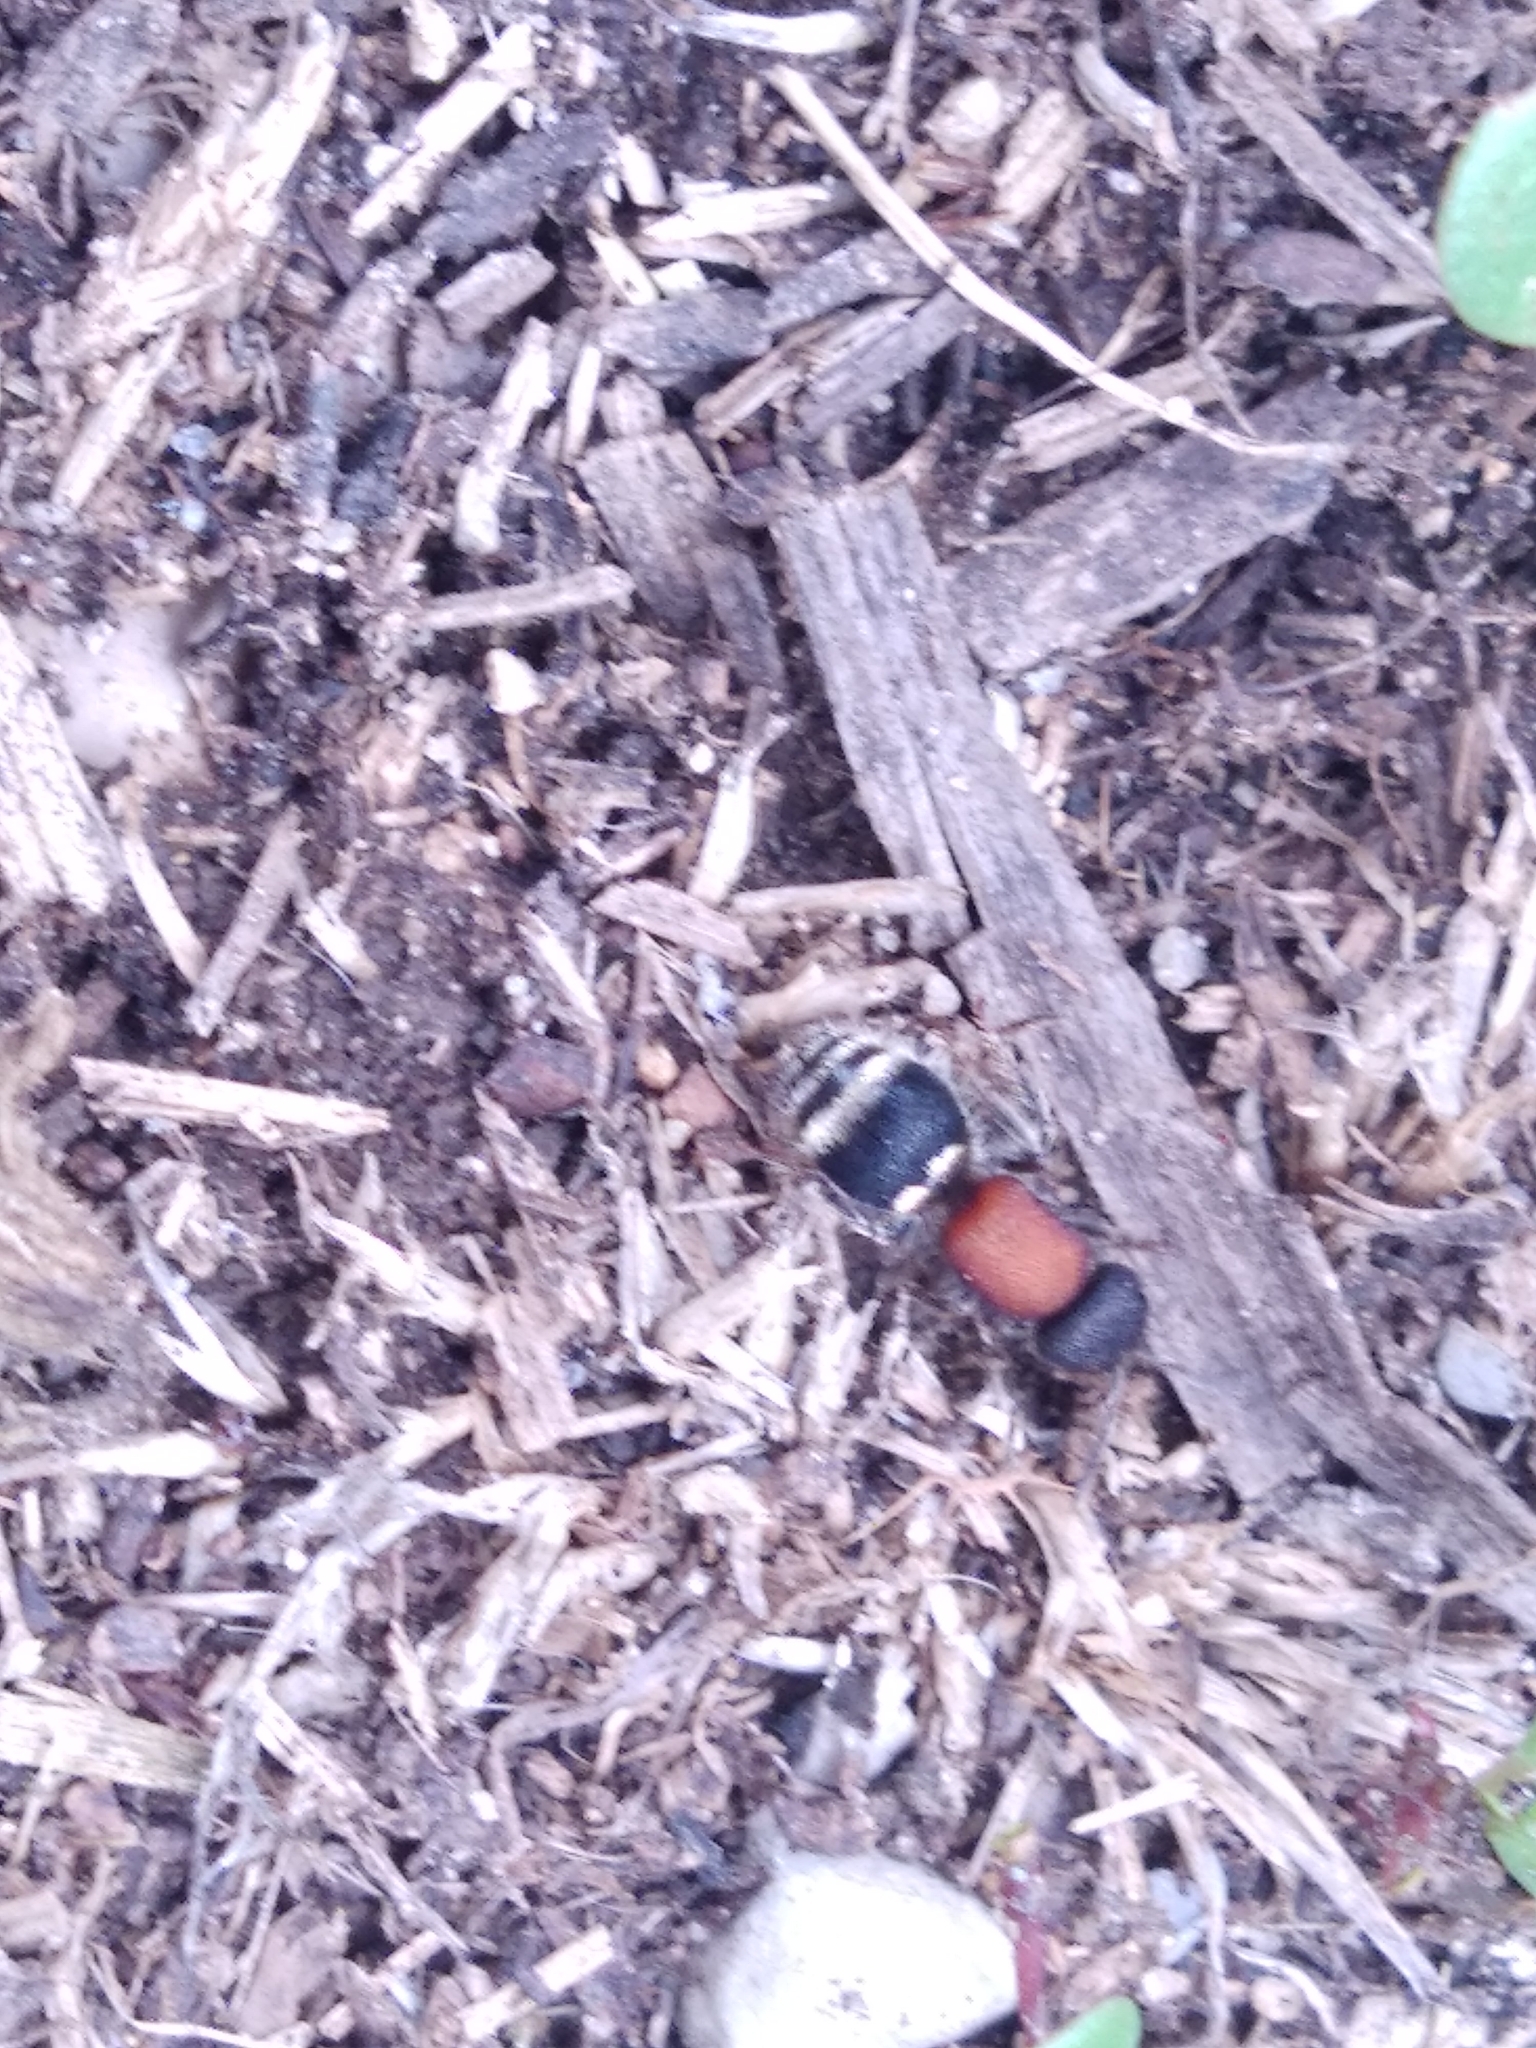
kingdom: Animalia
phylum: Arthropoda
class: Insecta
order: Hymenoptera
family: Mutillidae
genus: Tropidotilla
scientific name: Tropidotilla litoralis
